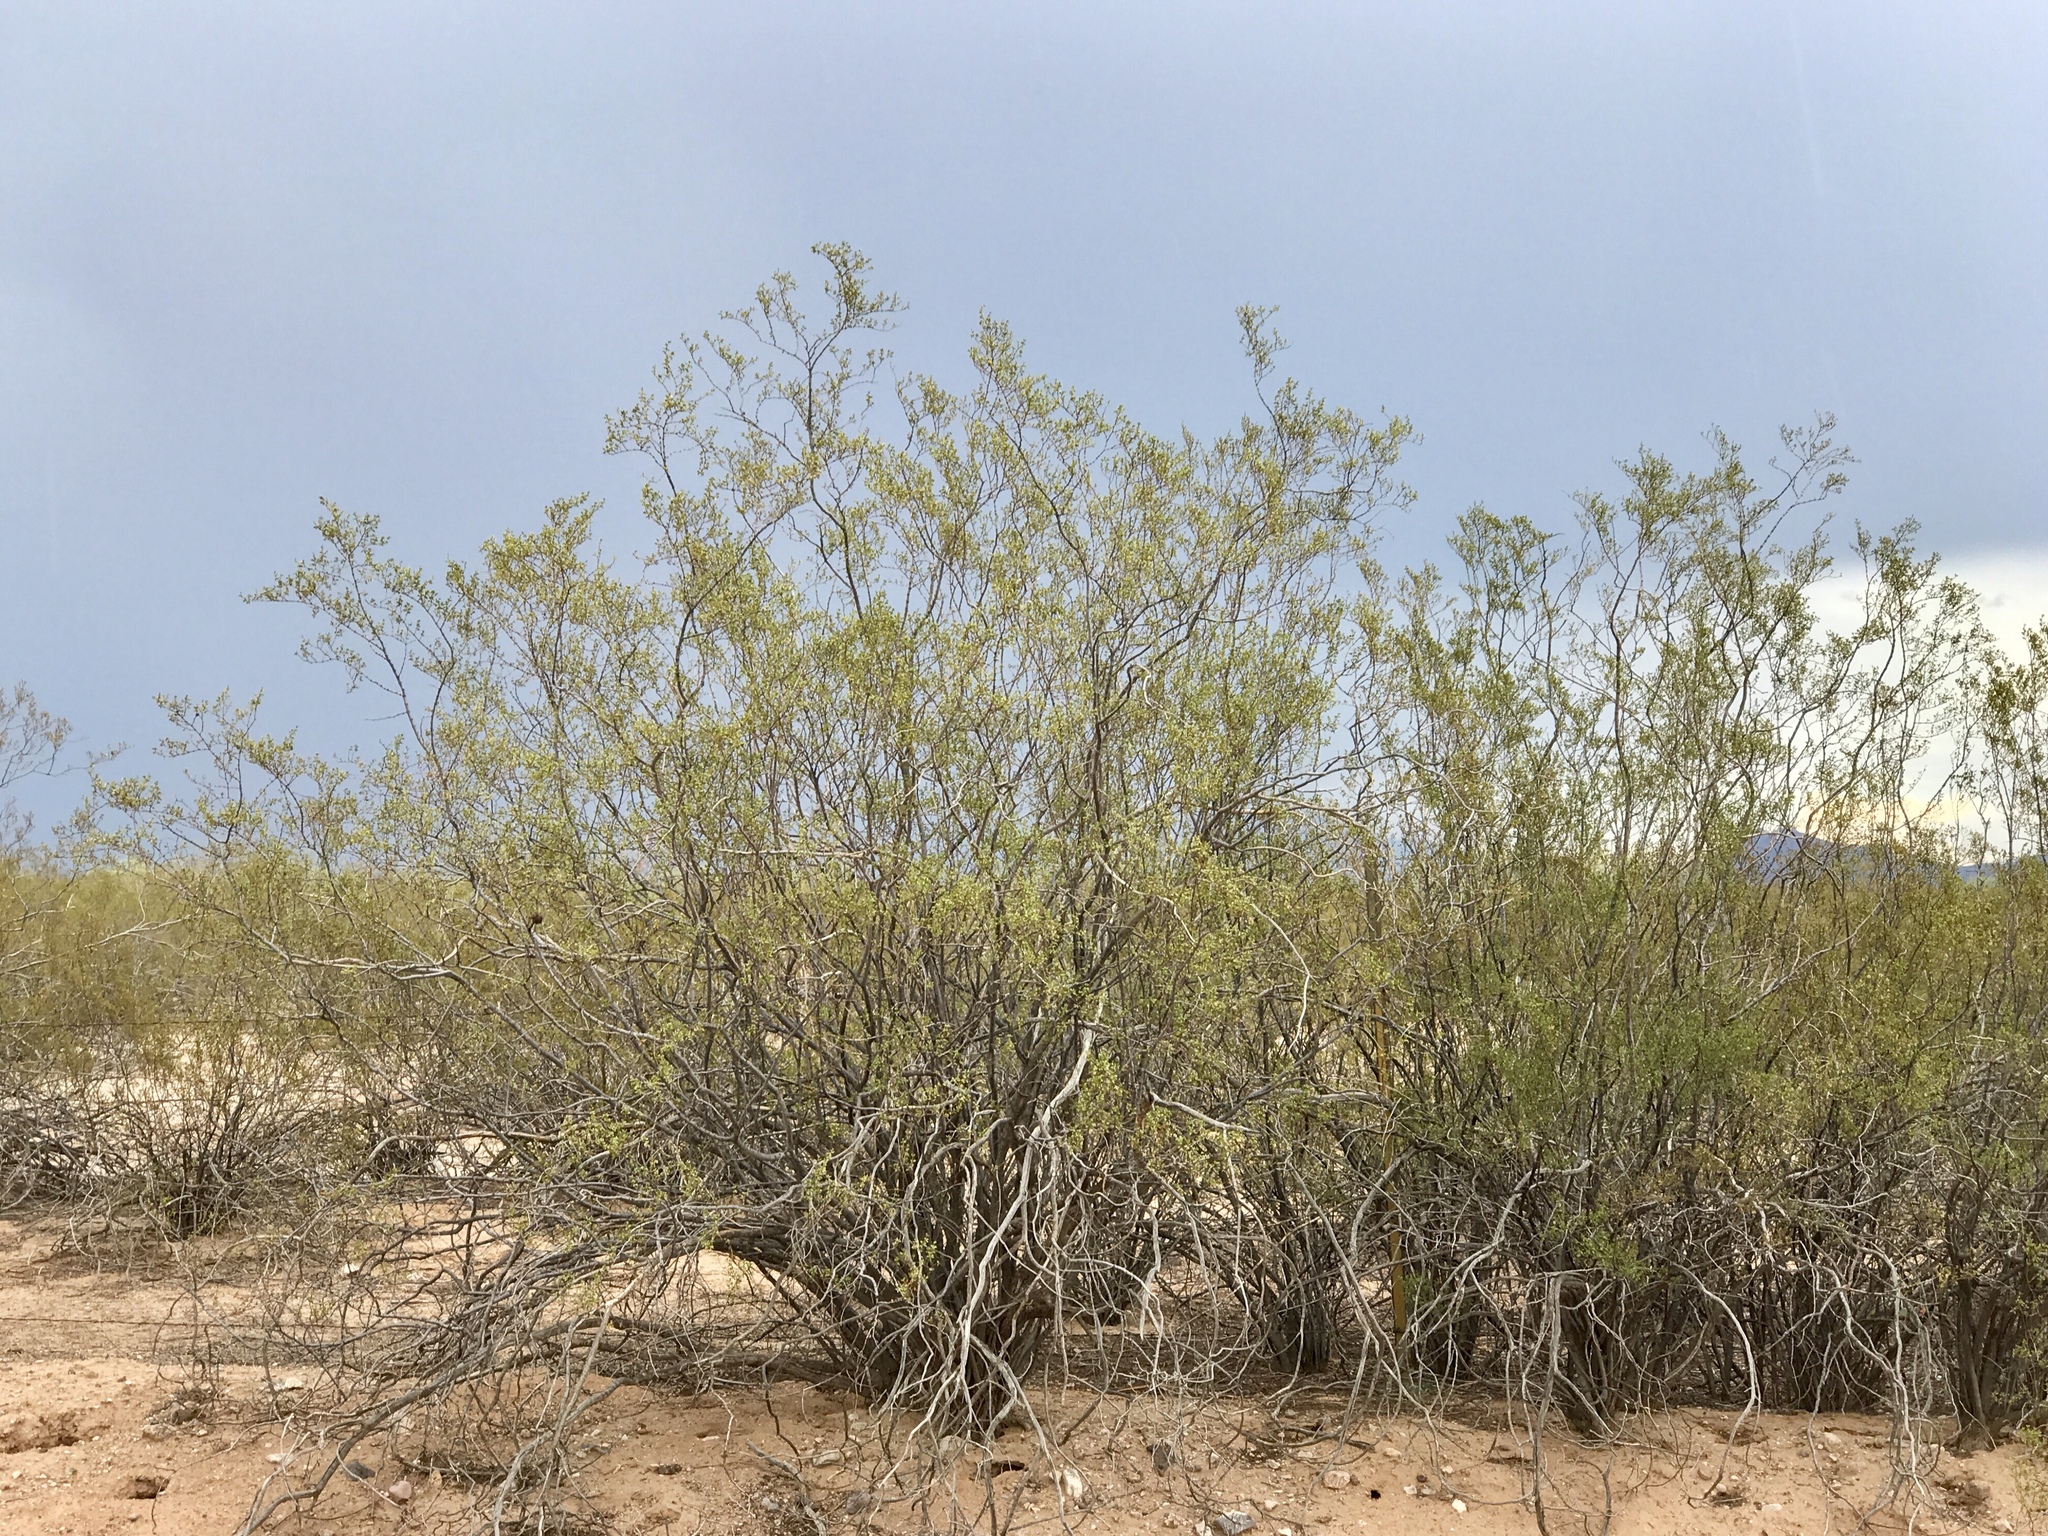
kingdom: Plantae
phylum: Tracheophyta
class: Magnoliopsida
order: Zygophyllales
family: Zygophyllaceae
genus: Larrea
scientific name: Larrea tridentata
